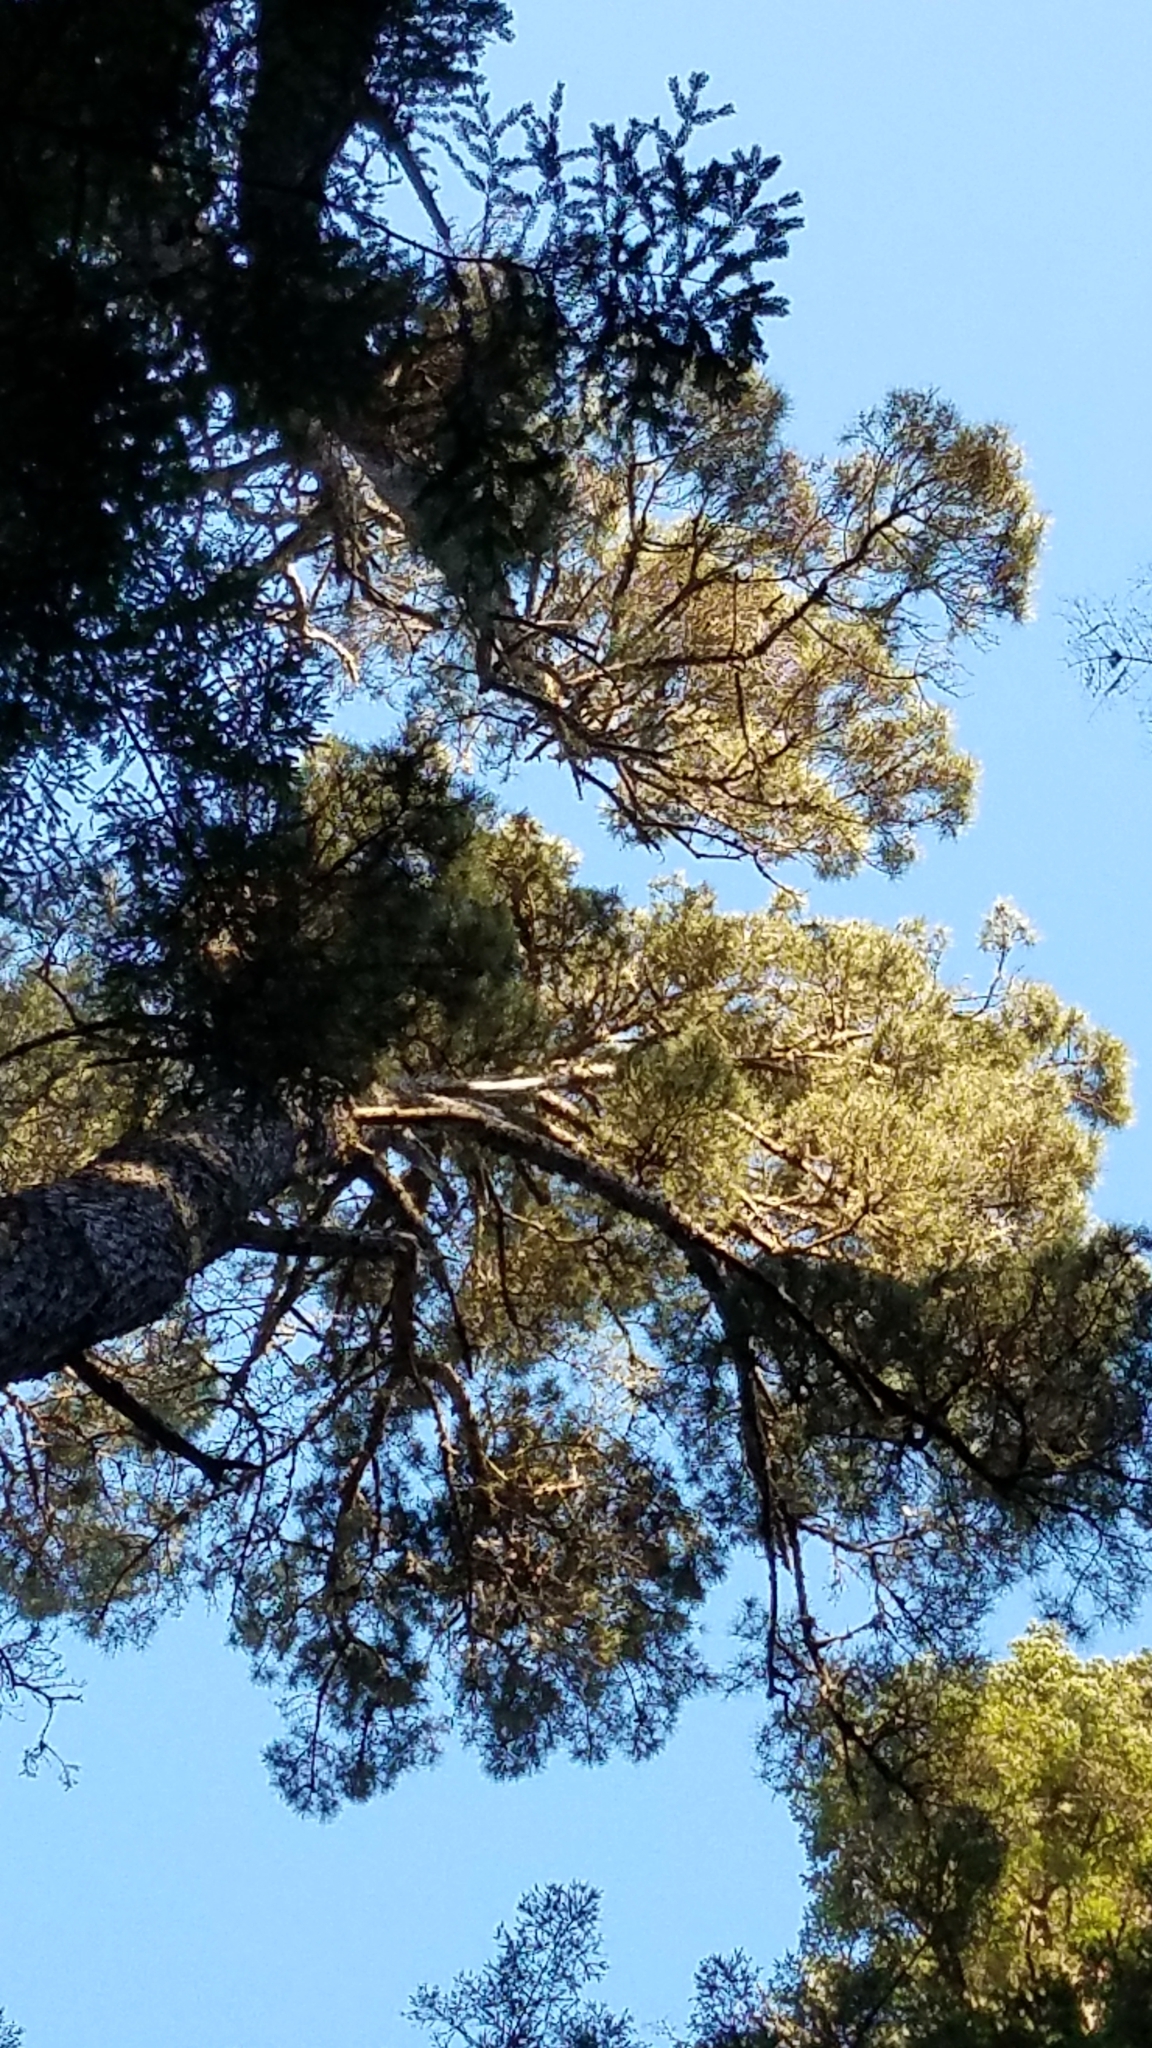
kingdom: Plantae
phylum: Tracheophyta
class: Pinopsida
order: Pinales
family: Pinaceae
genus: Pinus
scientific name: Pinus muricata
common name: Bishop pine
